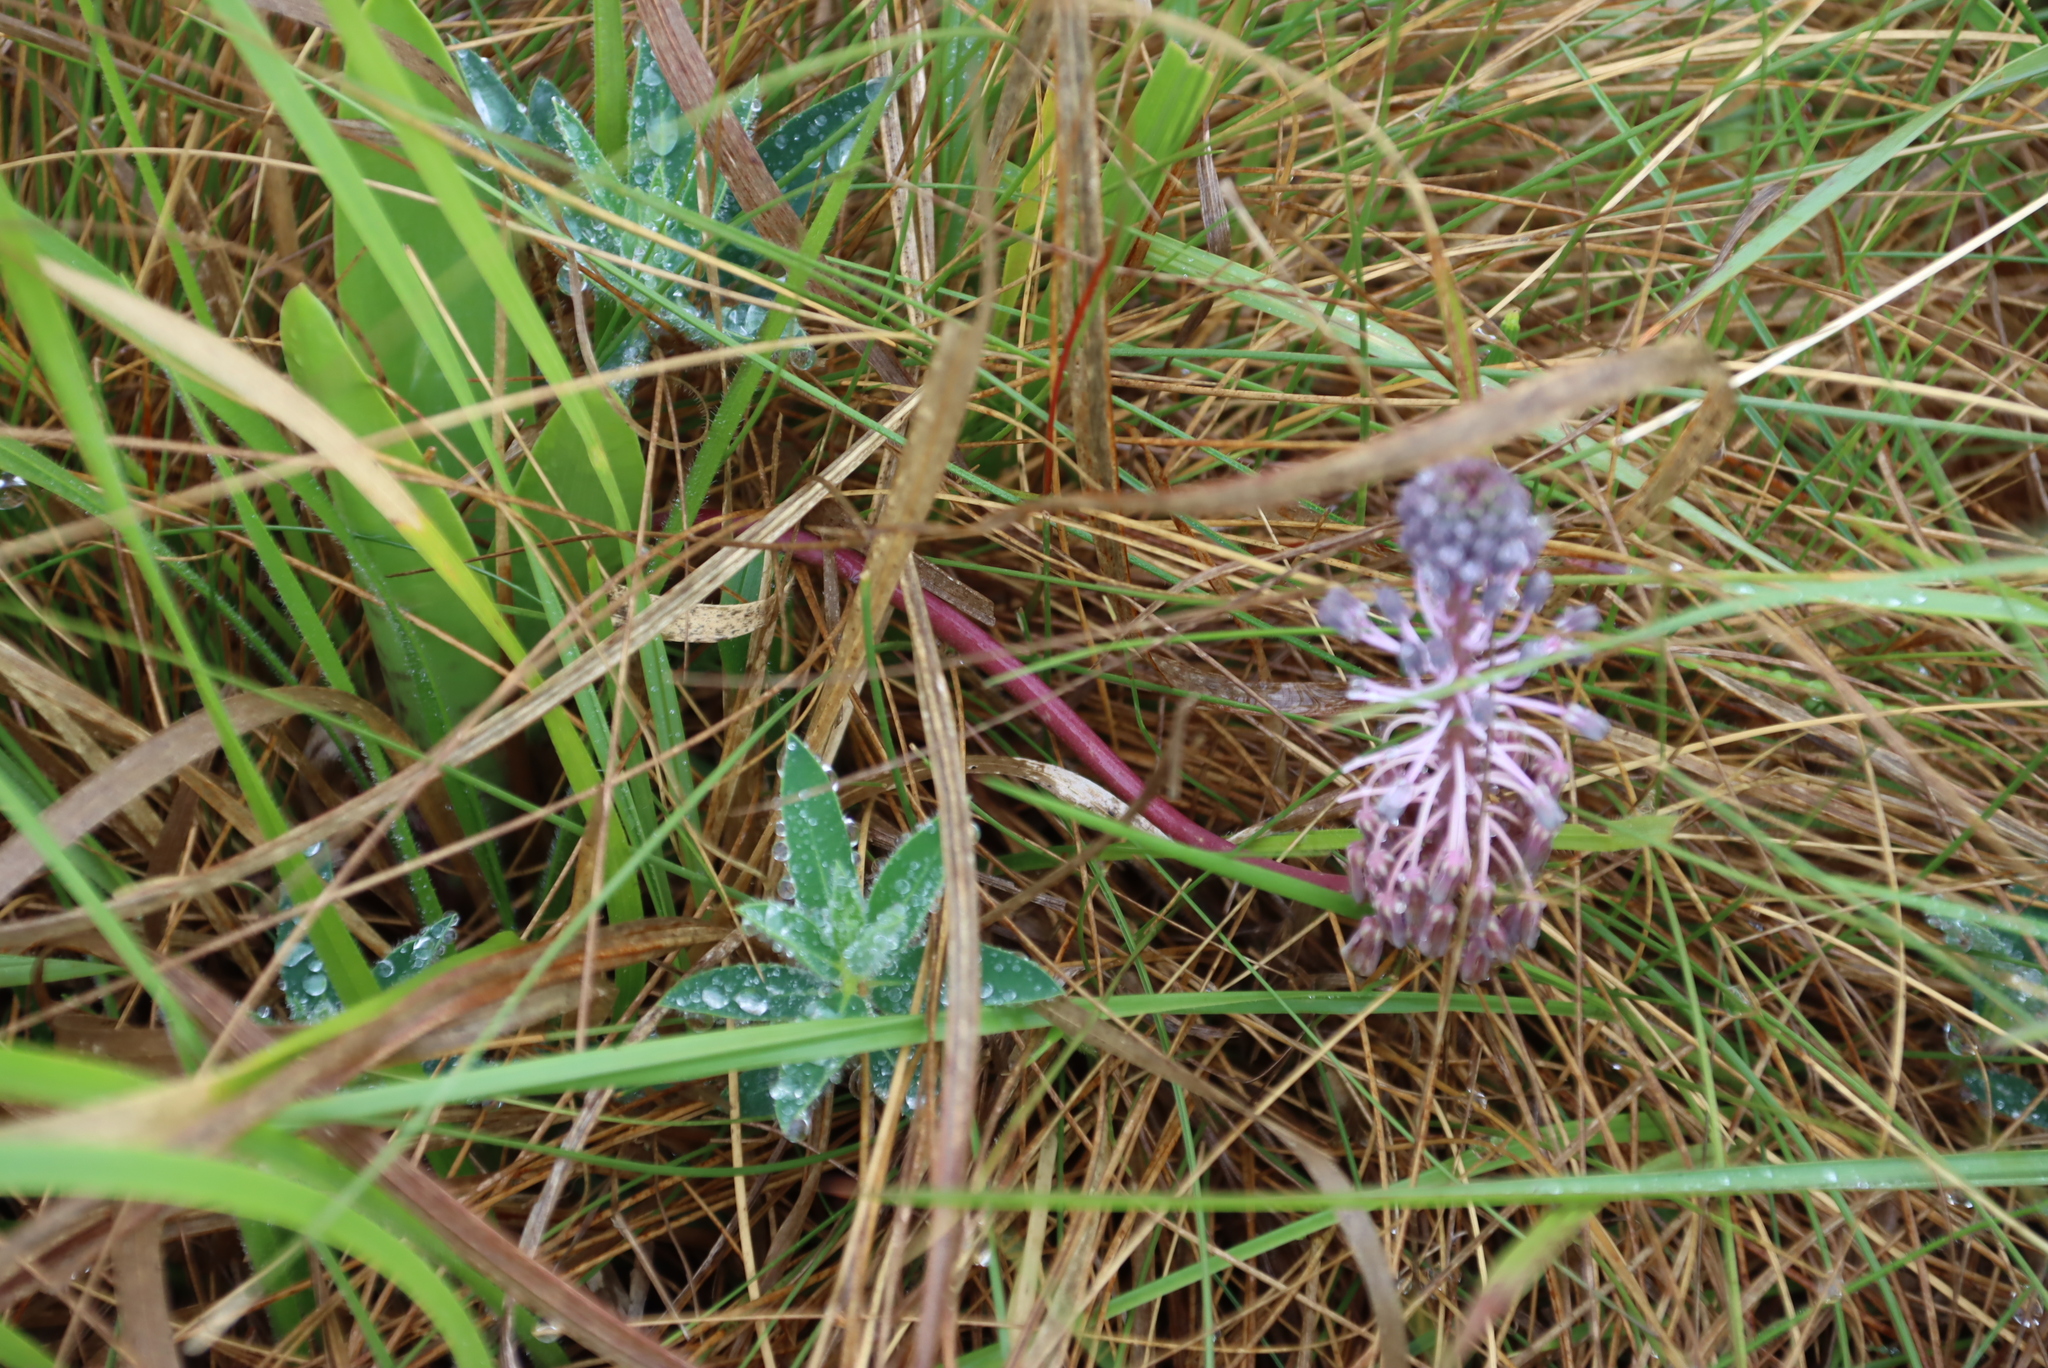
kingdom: Plantae
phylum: Tracheophyta
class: Liliopsida
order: Asparagales
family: Asparagaceae
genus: Ledebouria
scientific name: Ledebouria cooperi
